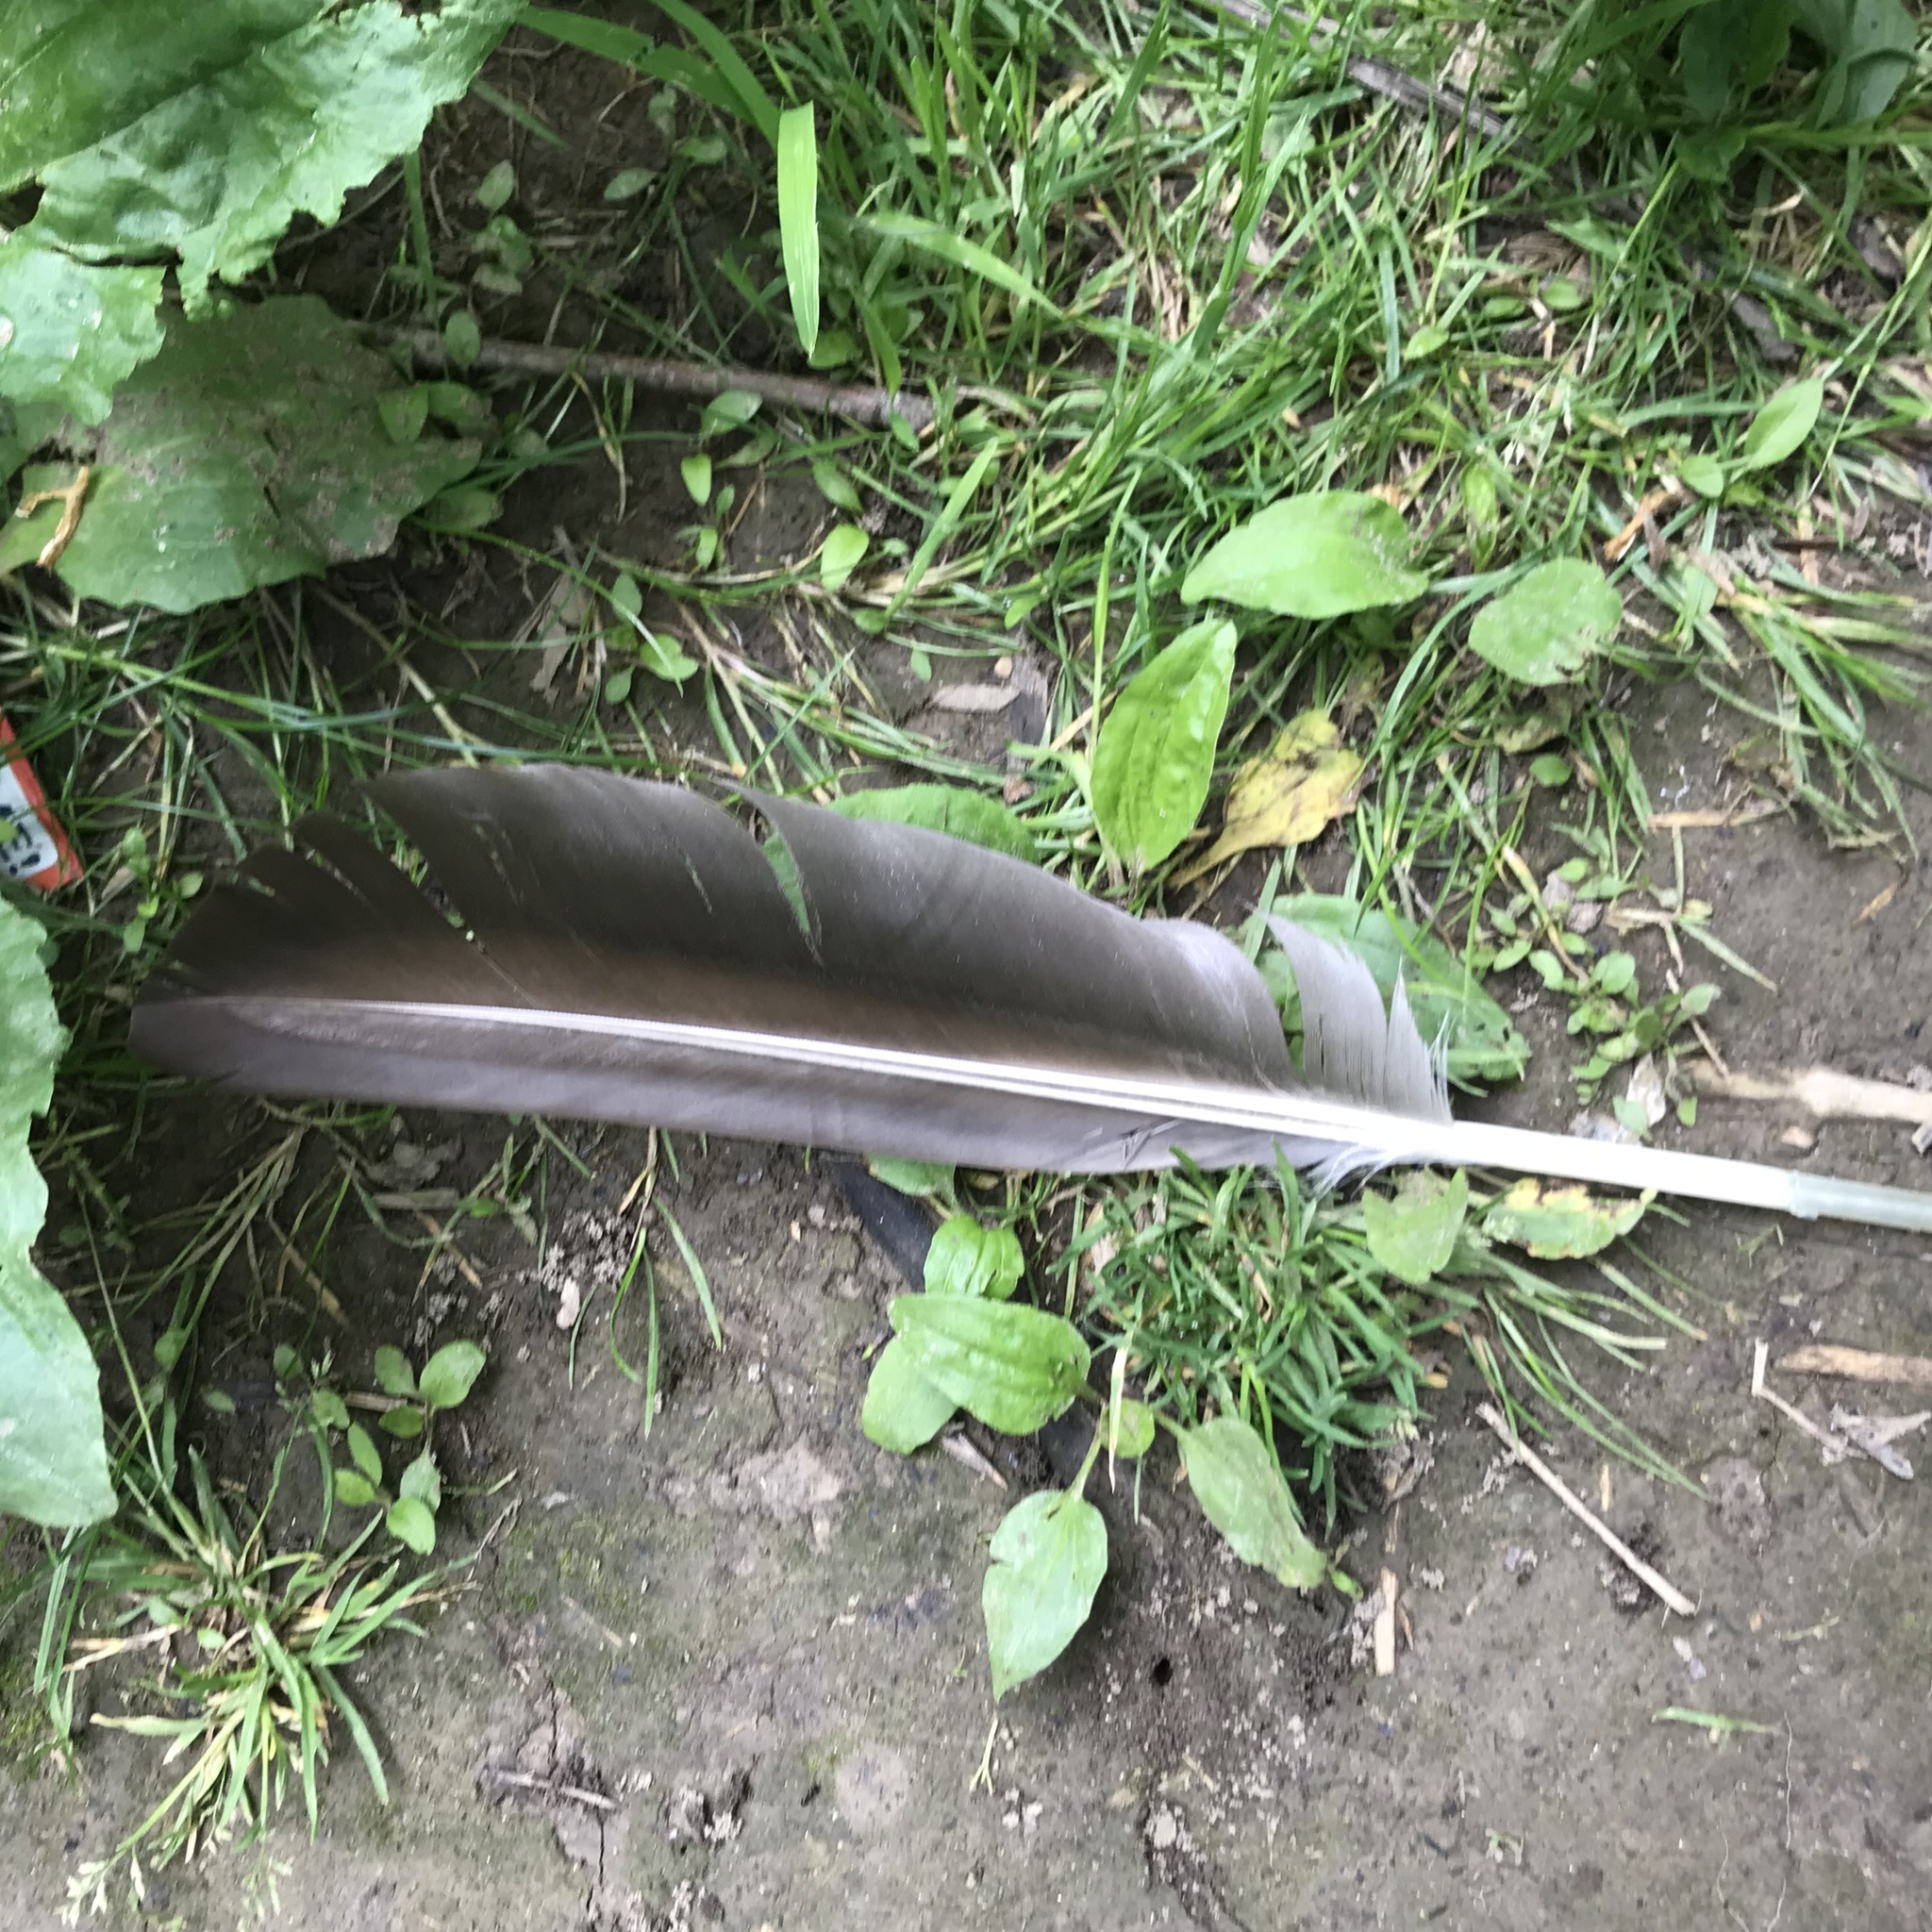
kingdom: Animalia
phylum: Chordata
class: Aves
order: Anseriformes
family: Anatidae
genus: Branta
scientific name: Branta canadensis
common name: Canada goose
